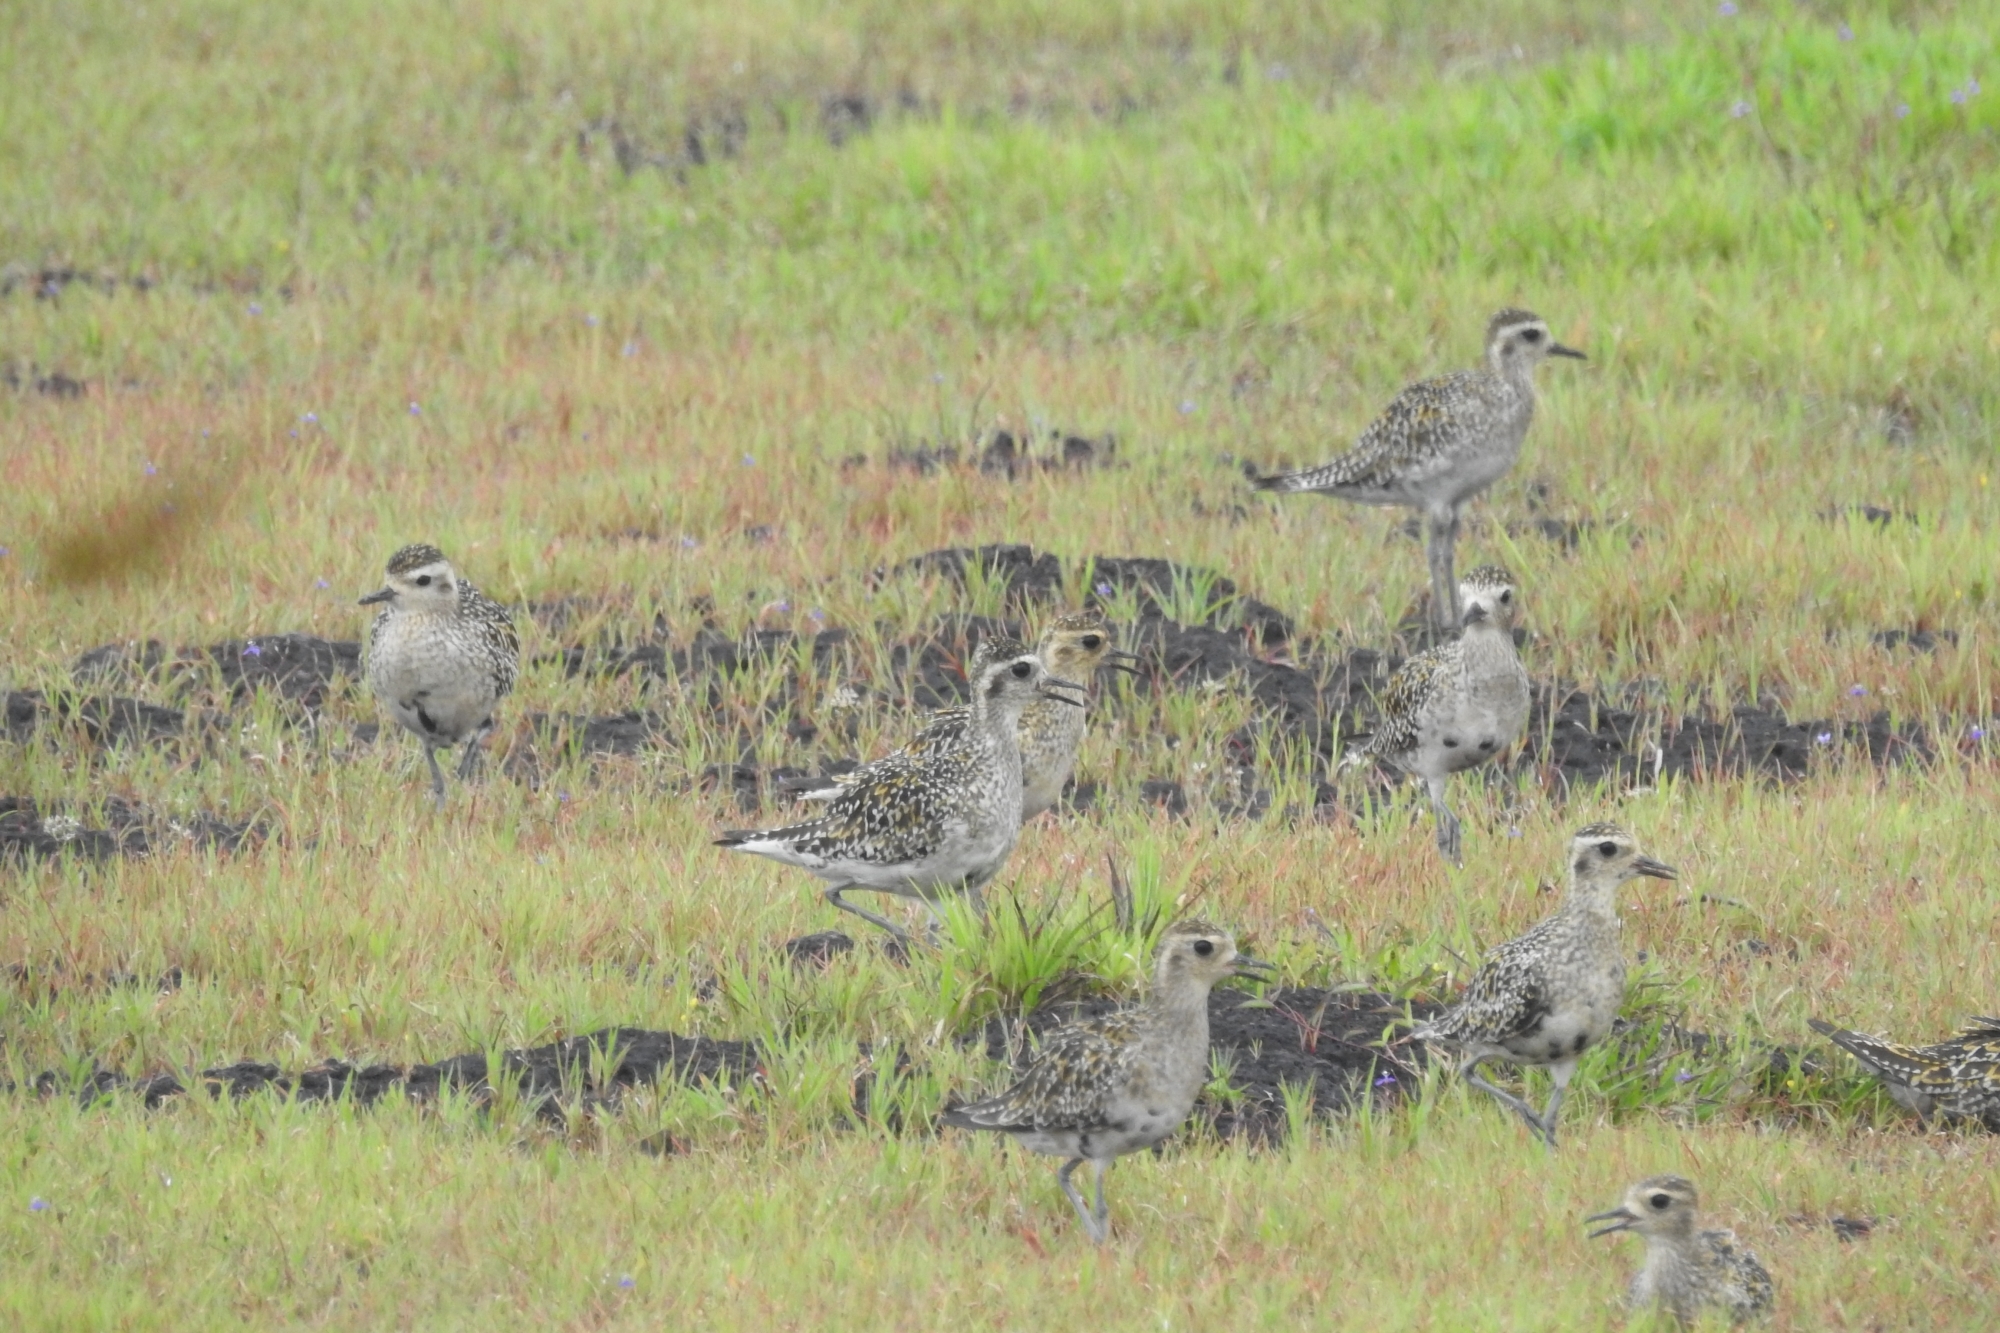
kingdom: Animalia
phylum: Chordata
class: Aves
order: Charadriiformes
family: Charadriidae
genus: Pluvialis
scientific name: Pluvialis fulva
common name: Pacific golden plover
